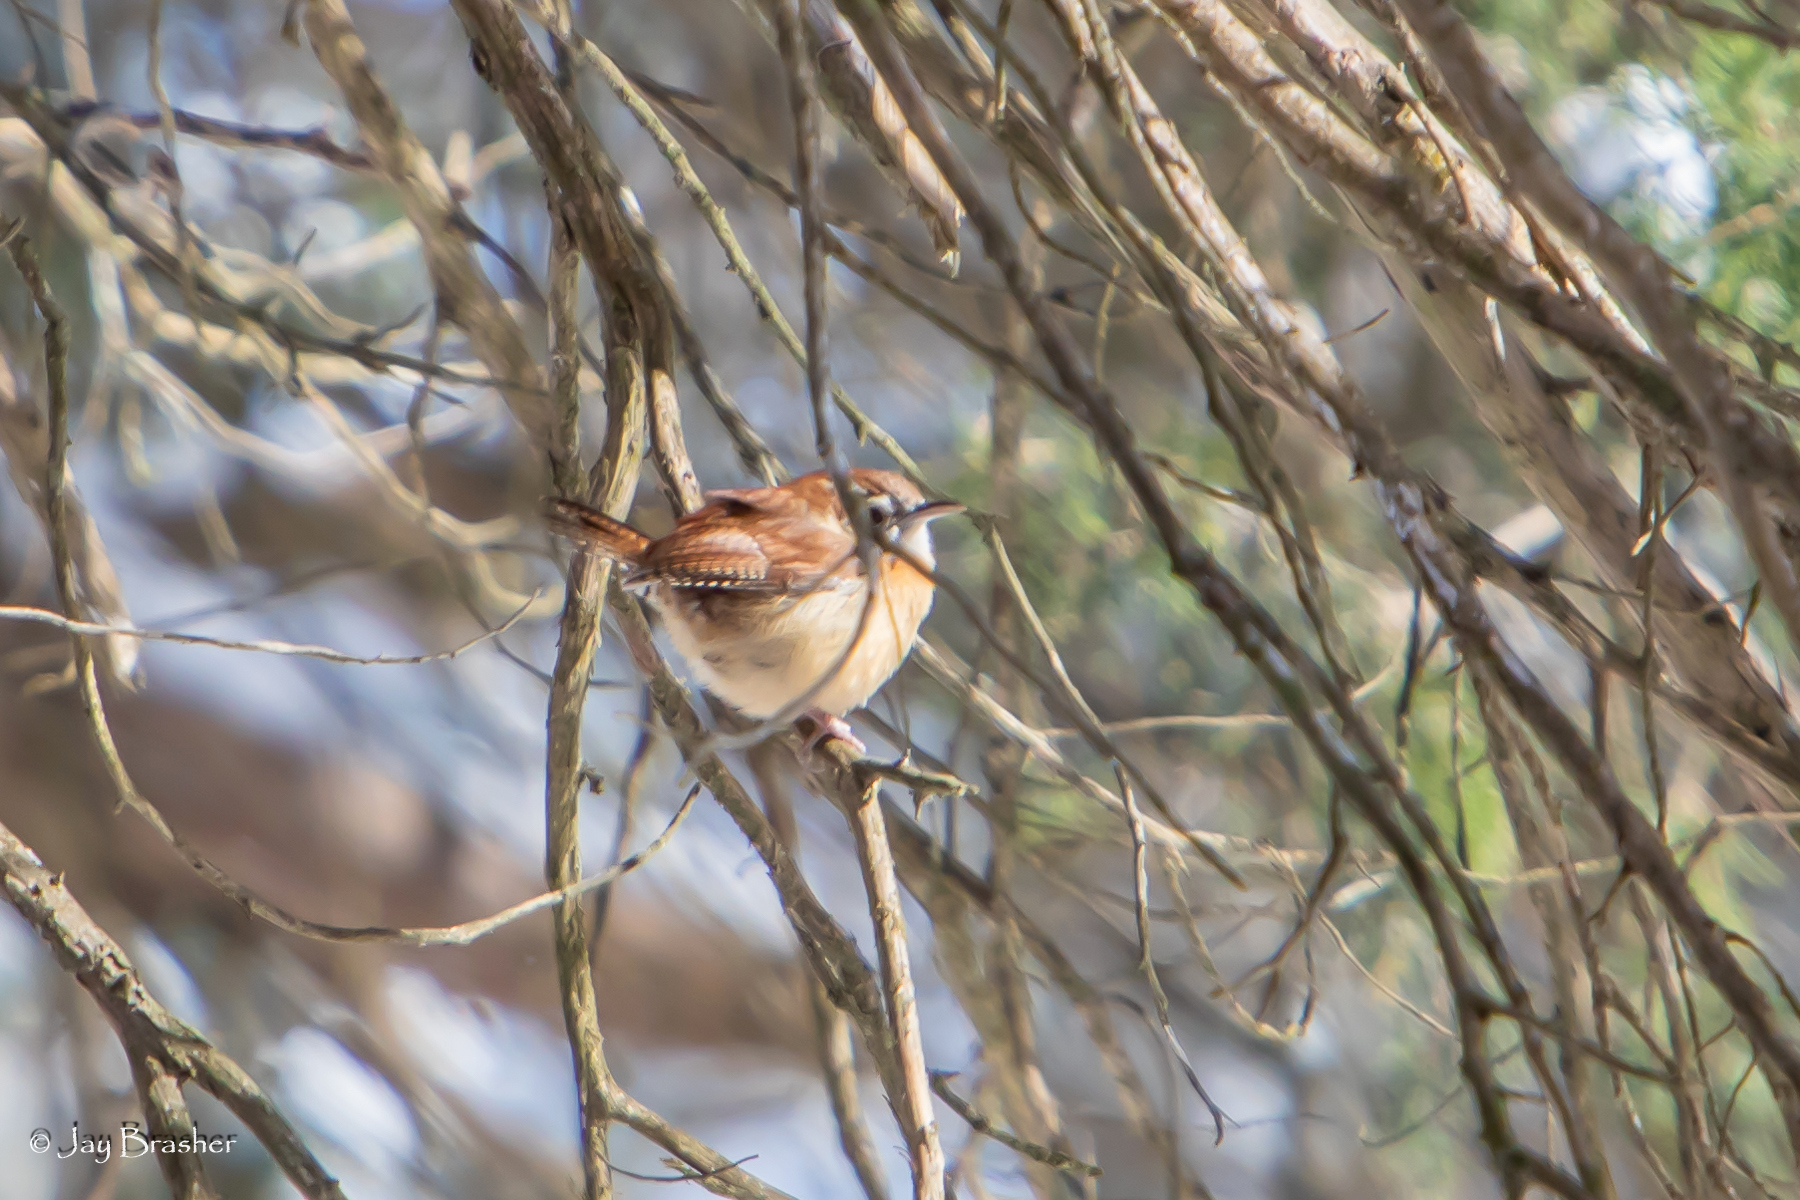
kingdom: Animalia
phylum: Chordata
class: Aves
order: Passeriformes
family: Troglodytidae
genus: Thryothorus
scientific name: Thryothorus ludovicianus
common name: Carolina wren
